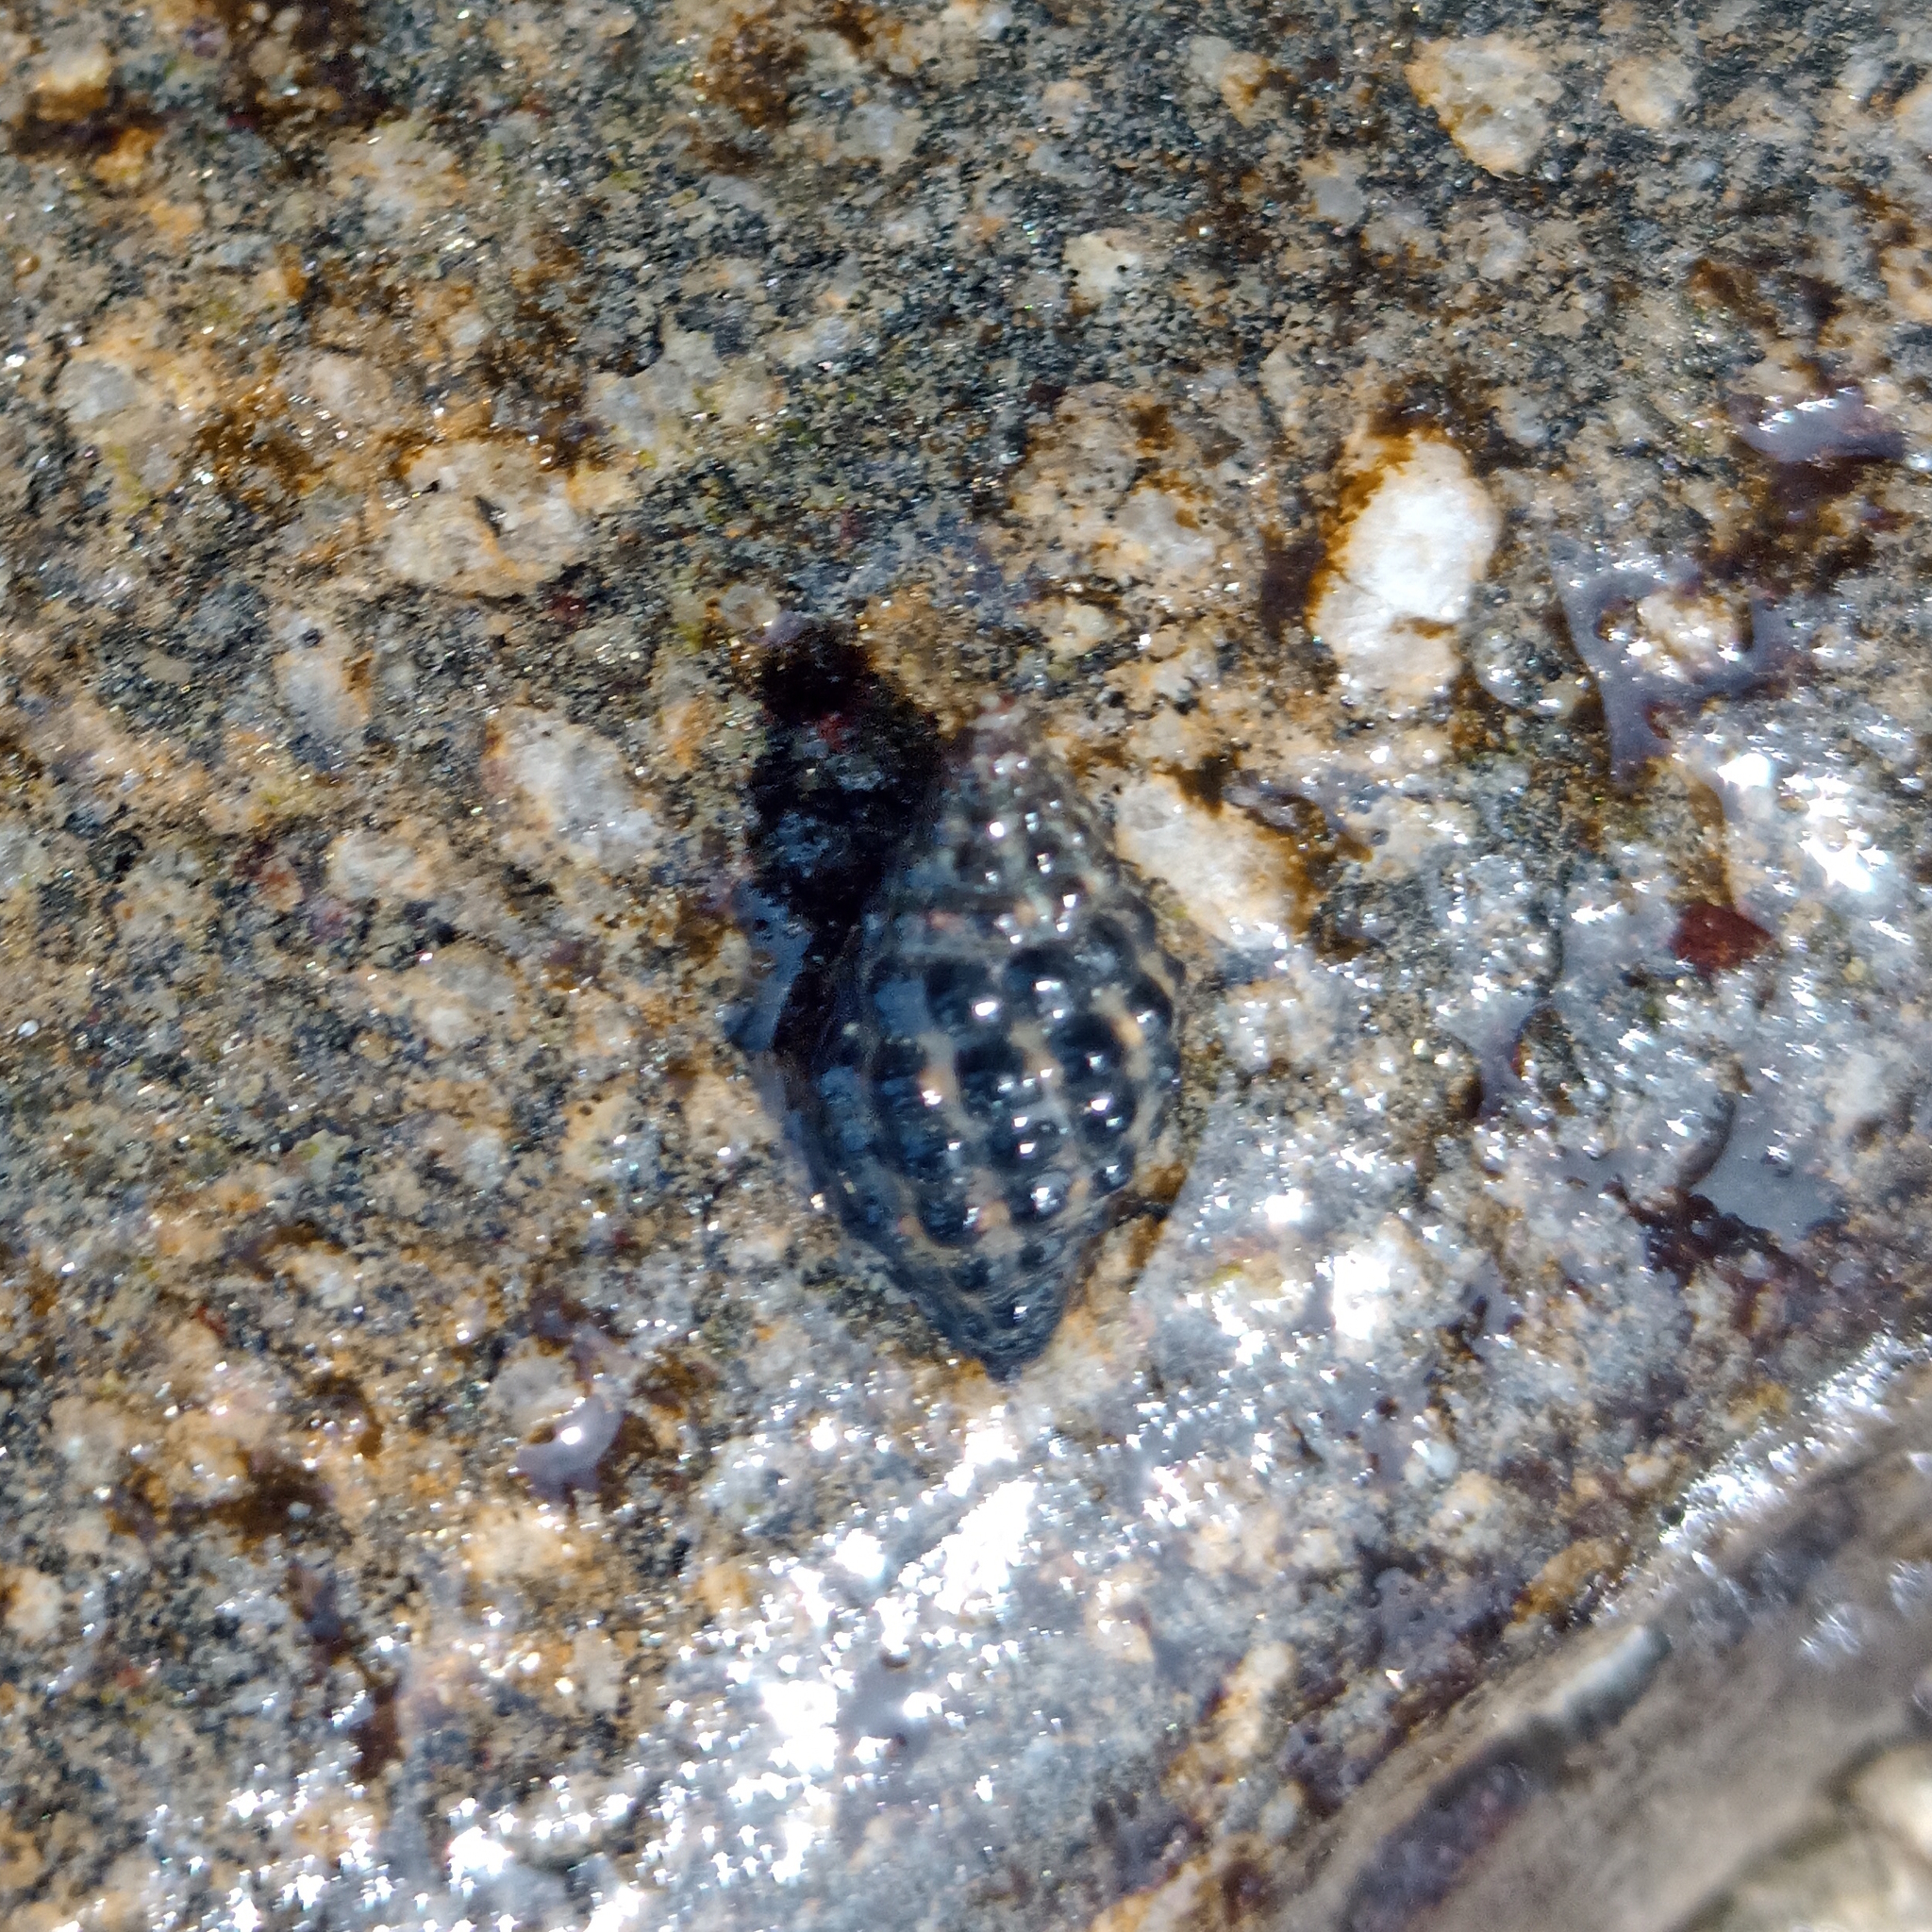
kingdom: Animalia
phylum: Mollusca
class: Gastropoda
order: Neogastropoda
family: Muricidae
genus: Claremontiella
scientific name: Claremontiella nodulosa
